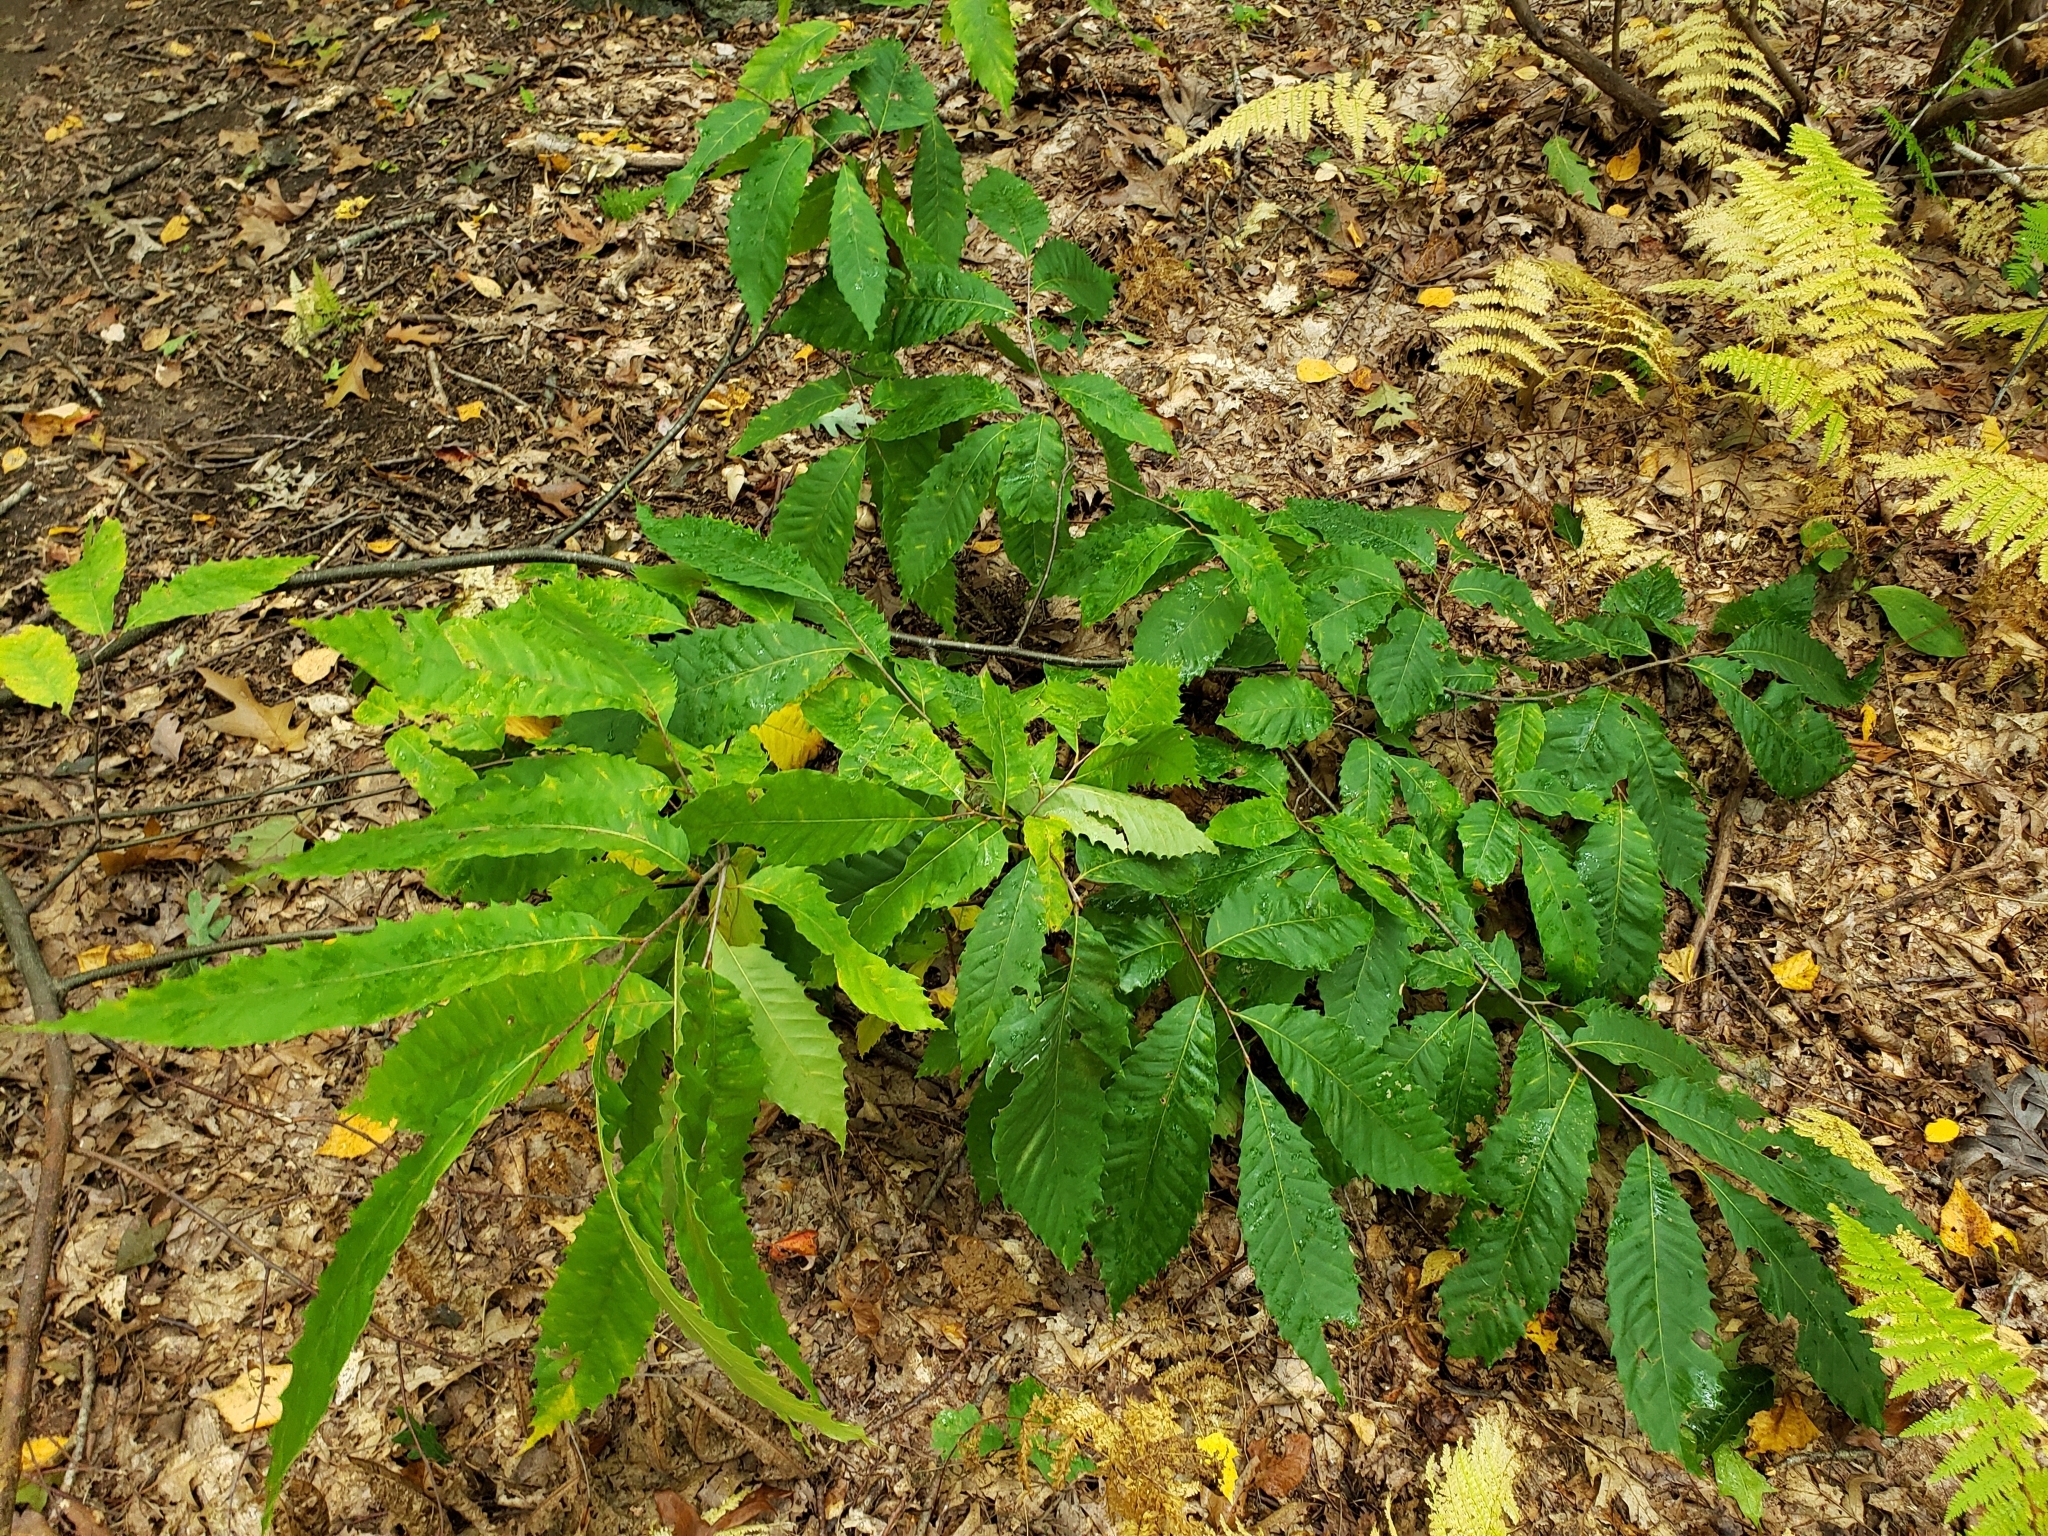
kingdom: Plantae
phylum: Tracheophyta
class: Magnoliopsida
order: Fagales
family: Fagaceae
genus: Castanea
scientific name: Castanea dentata
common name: American chestnut
